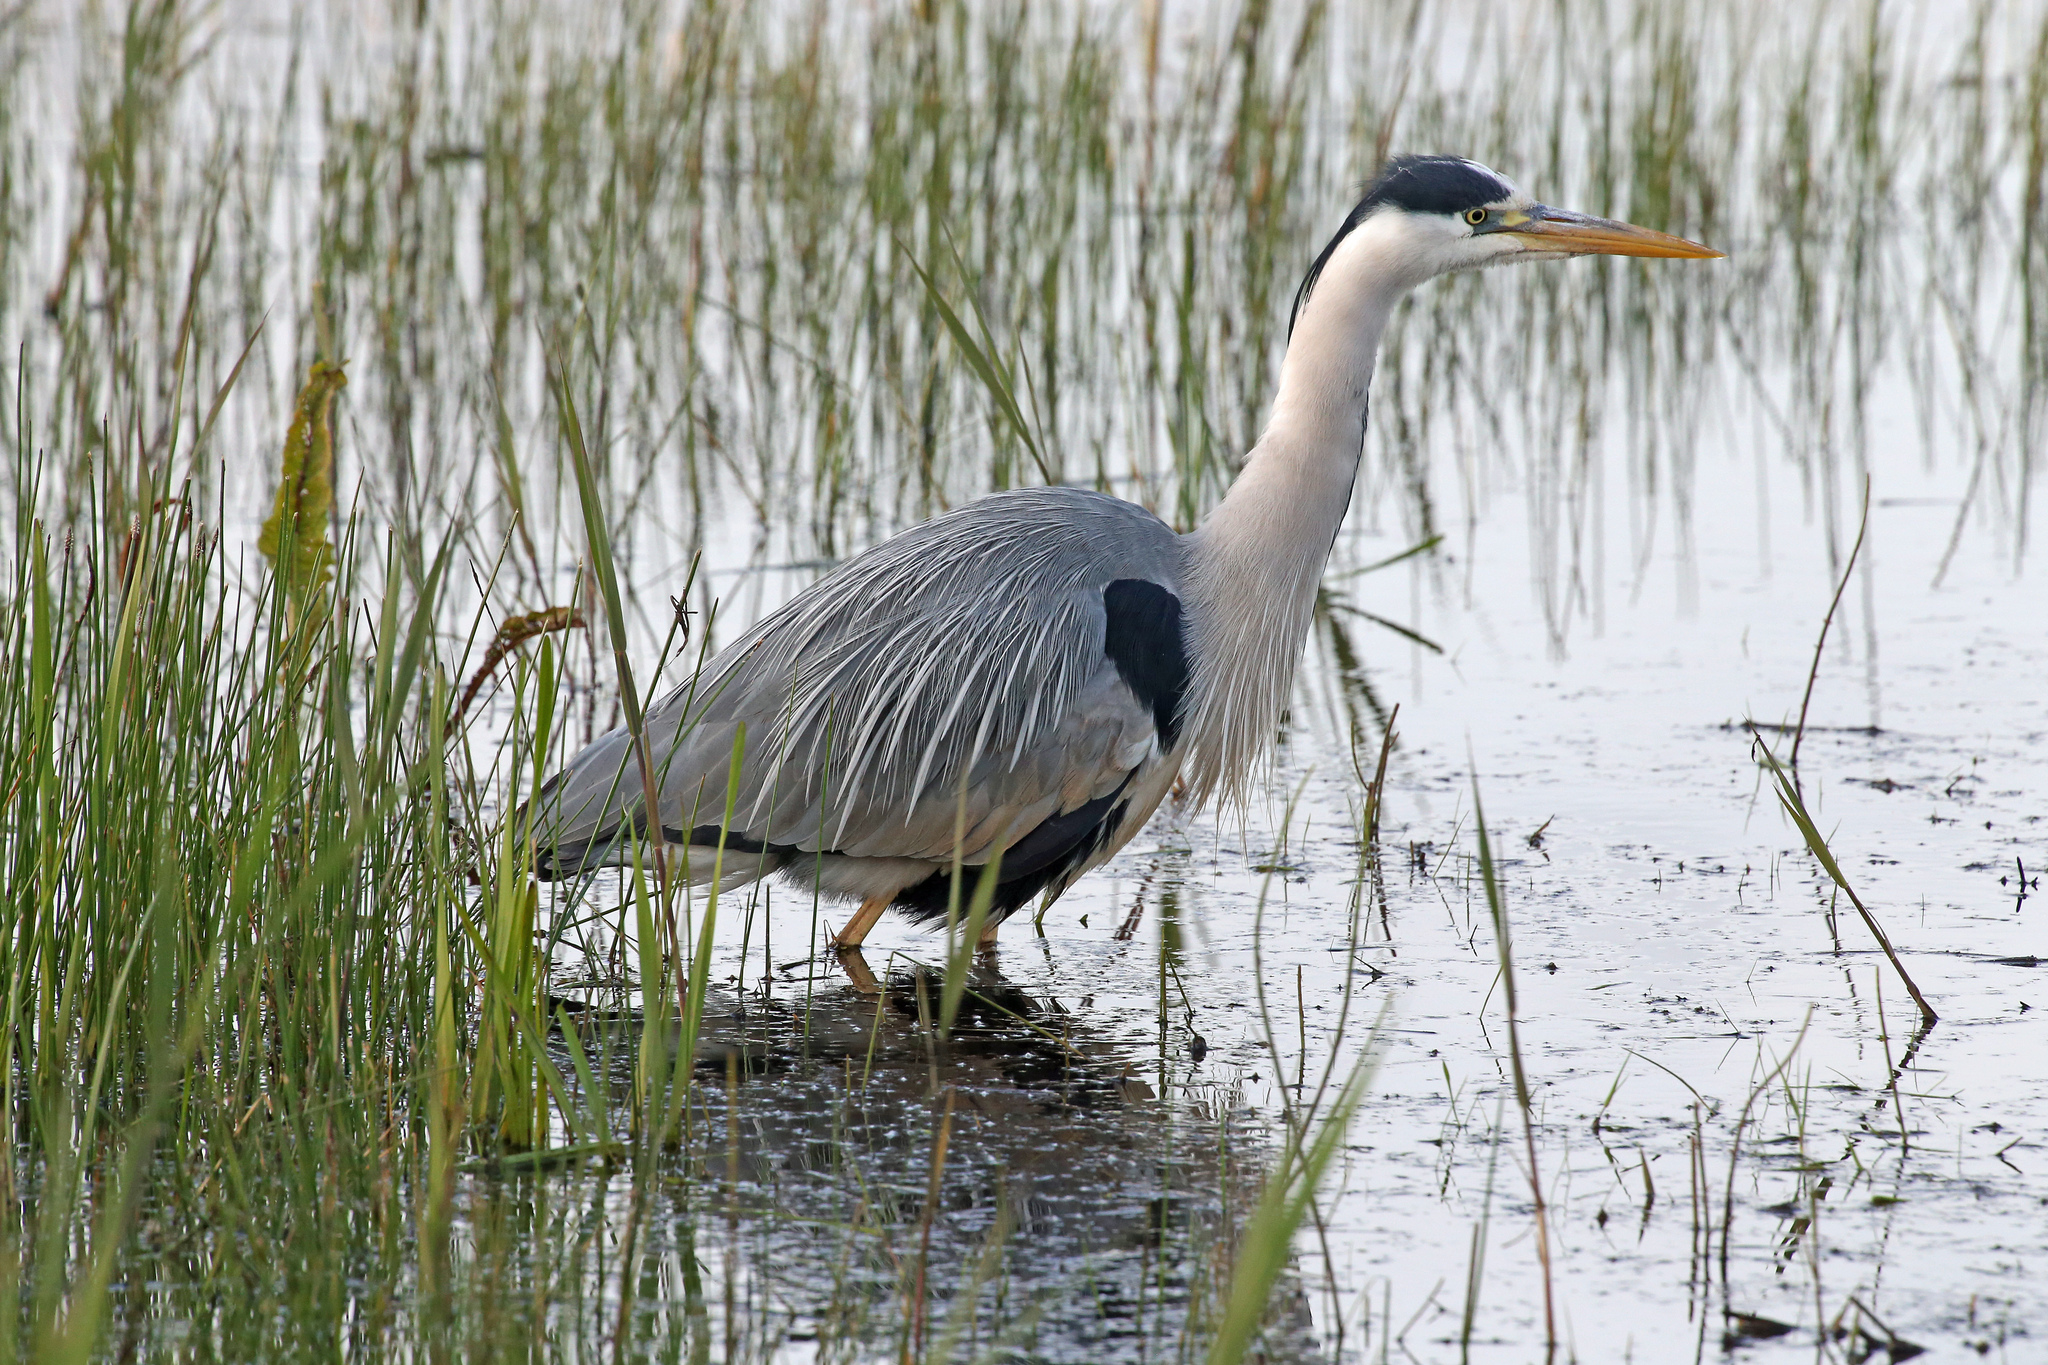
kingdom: Animalia
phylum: Chordata
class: Aves
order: Pelecaniformes
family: Ardeidae
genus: Ardea
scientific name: Ardea cinerea
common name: Grey heron
